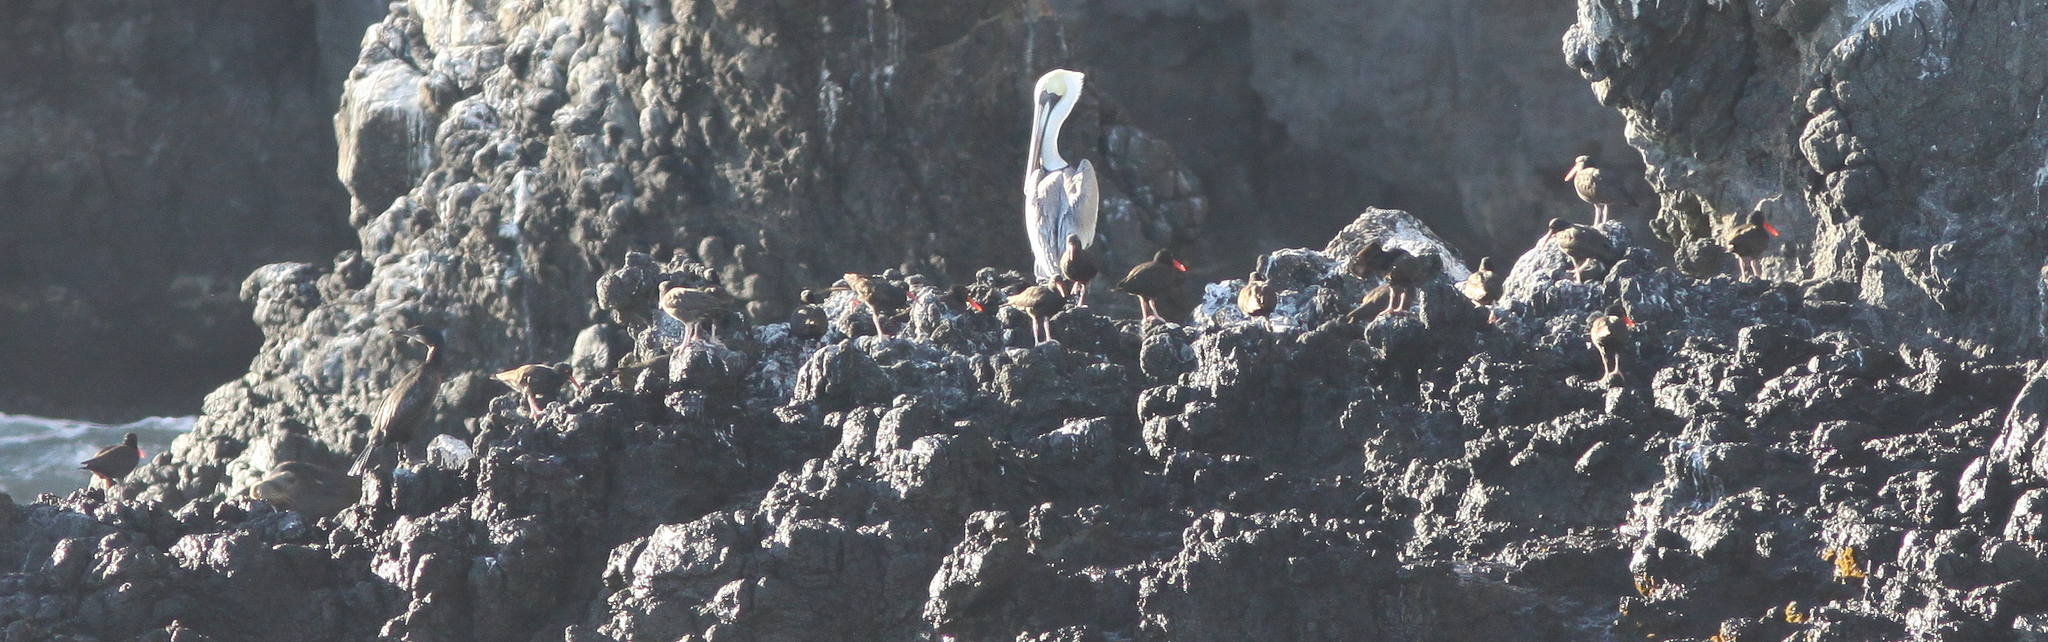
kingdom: Animalia
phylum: Chordata
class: Aves
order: Charadriiformes
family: Haematopodidae
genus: Haematopus
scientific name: Haematopus bachmani
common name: Black oystercatcher
